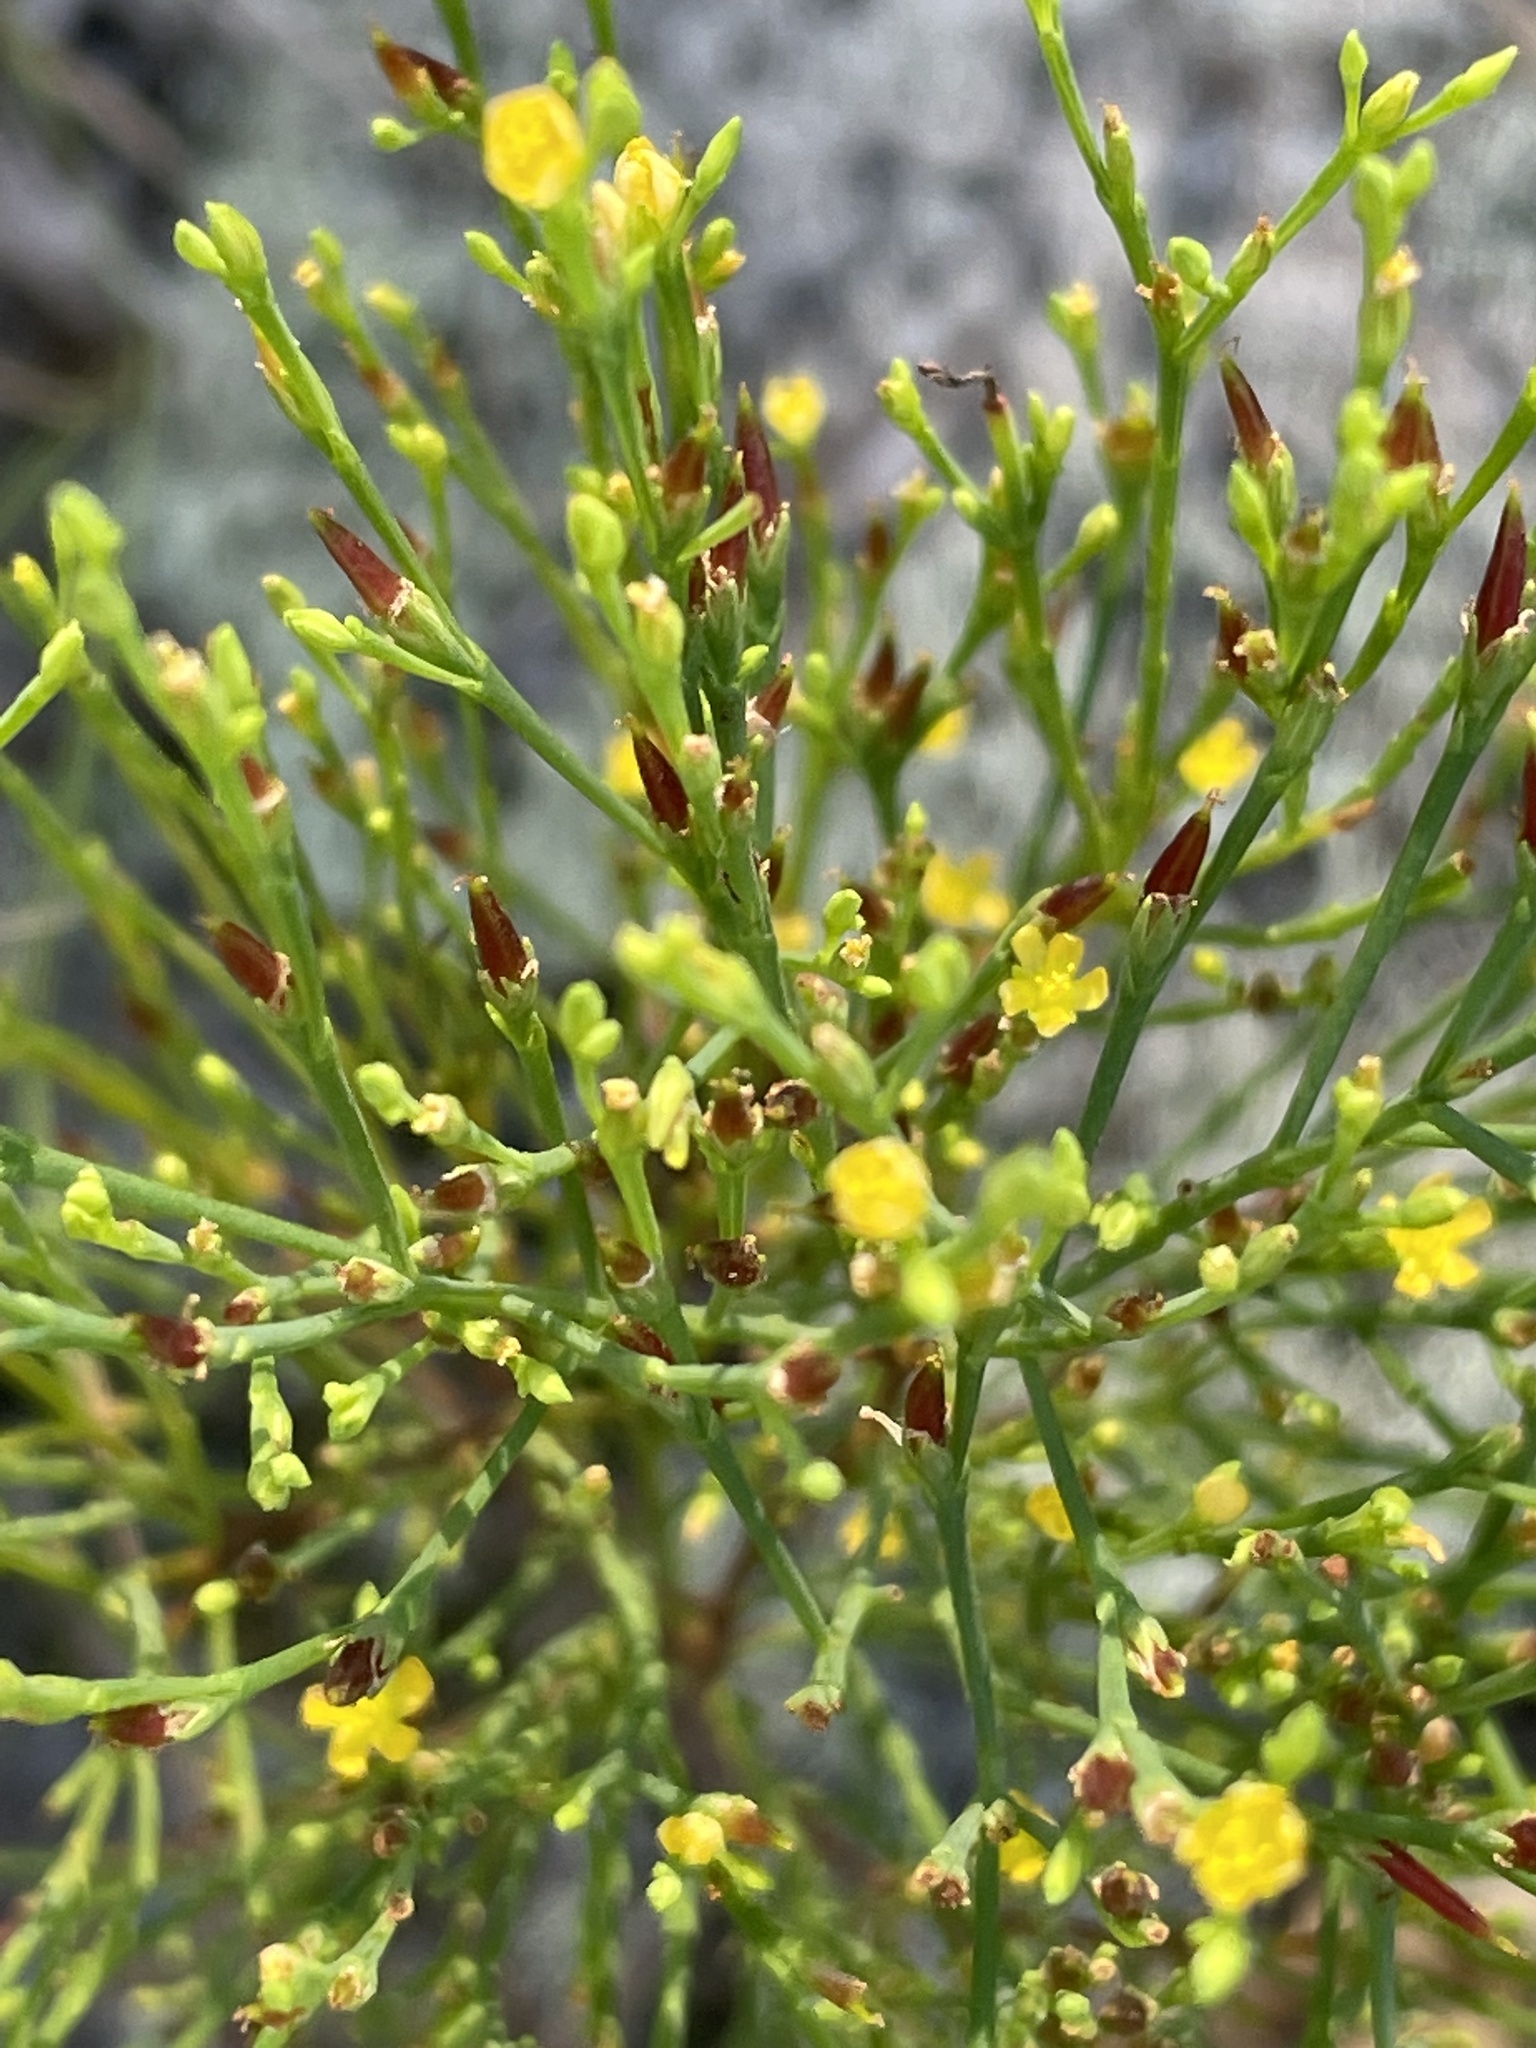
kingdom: Plantae
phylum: Tracheophyta
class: Magnoliopsida
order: Malpighiales
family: Hypericaceae
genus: Hypericum
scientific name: Hypericum gentianoides
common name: Gentian-leaved st. john's-wort
